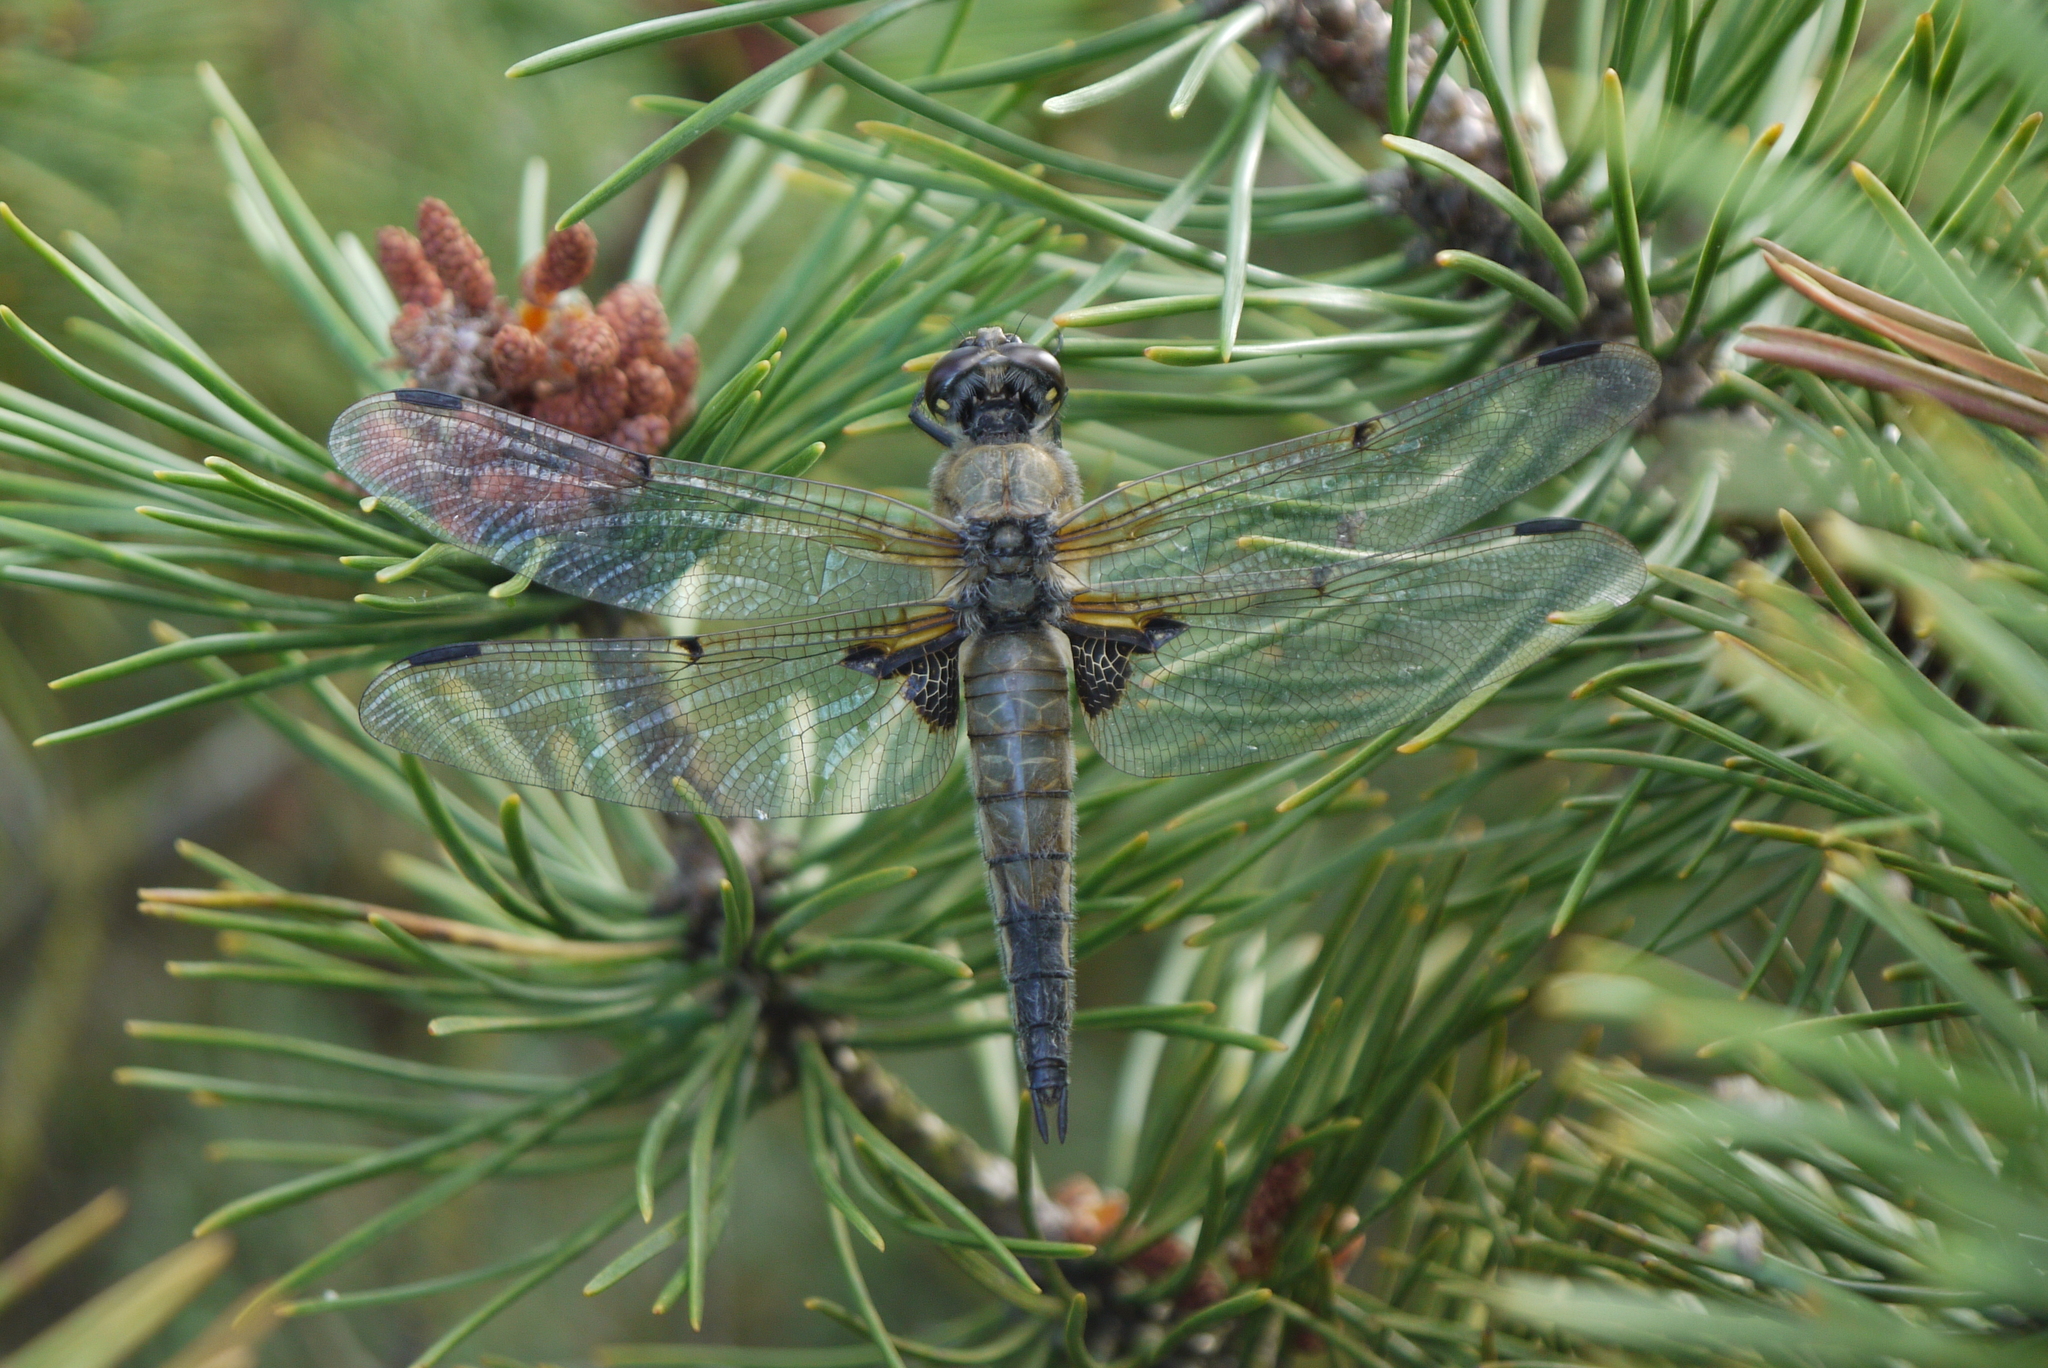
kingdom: Animalia
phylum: Arthropoda
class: Insecta
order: Odonata
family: Libellulidae
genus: Libellula
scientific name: Libellula quadrimaculata
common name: Four-spotted chaser
